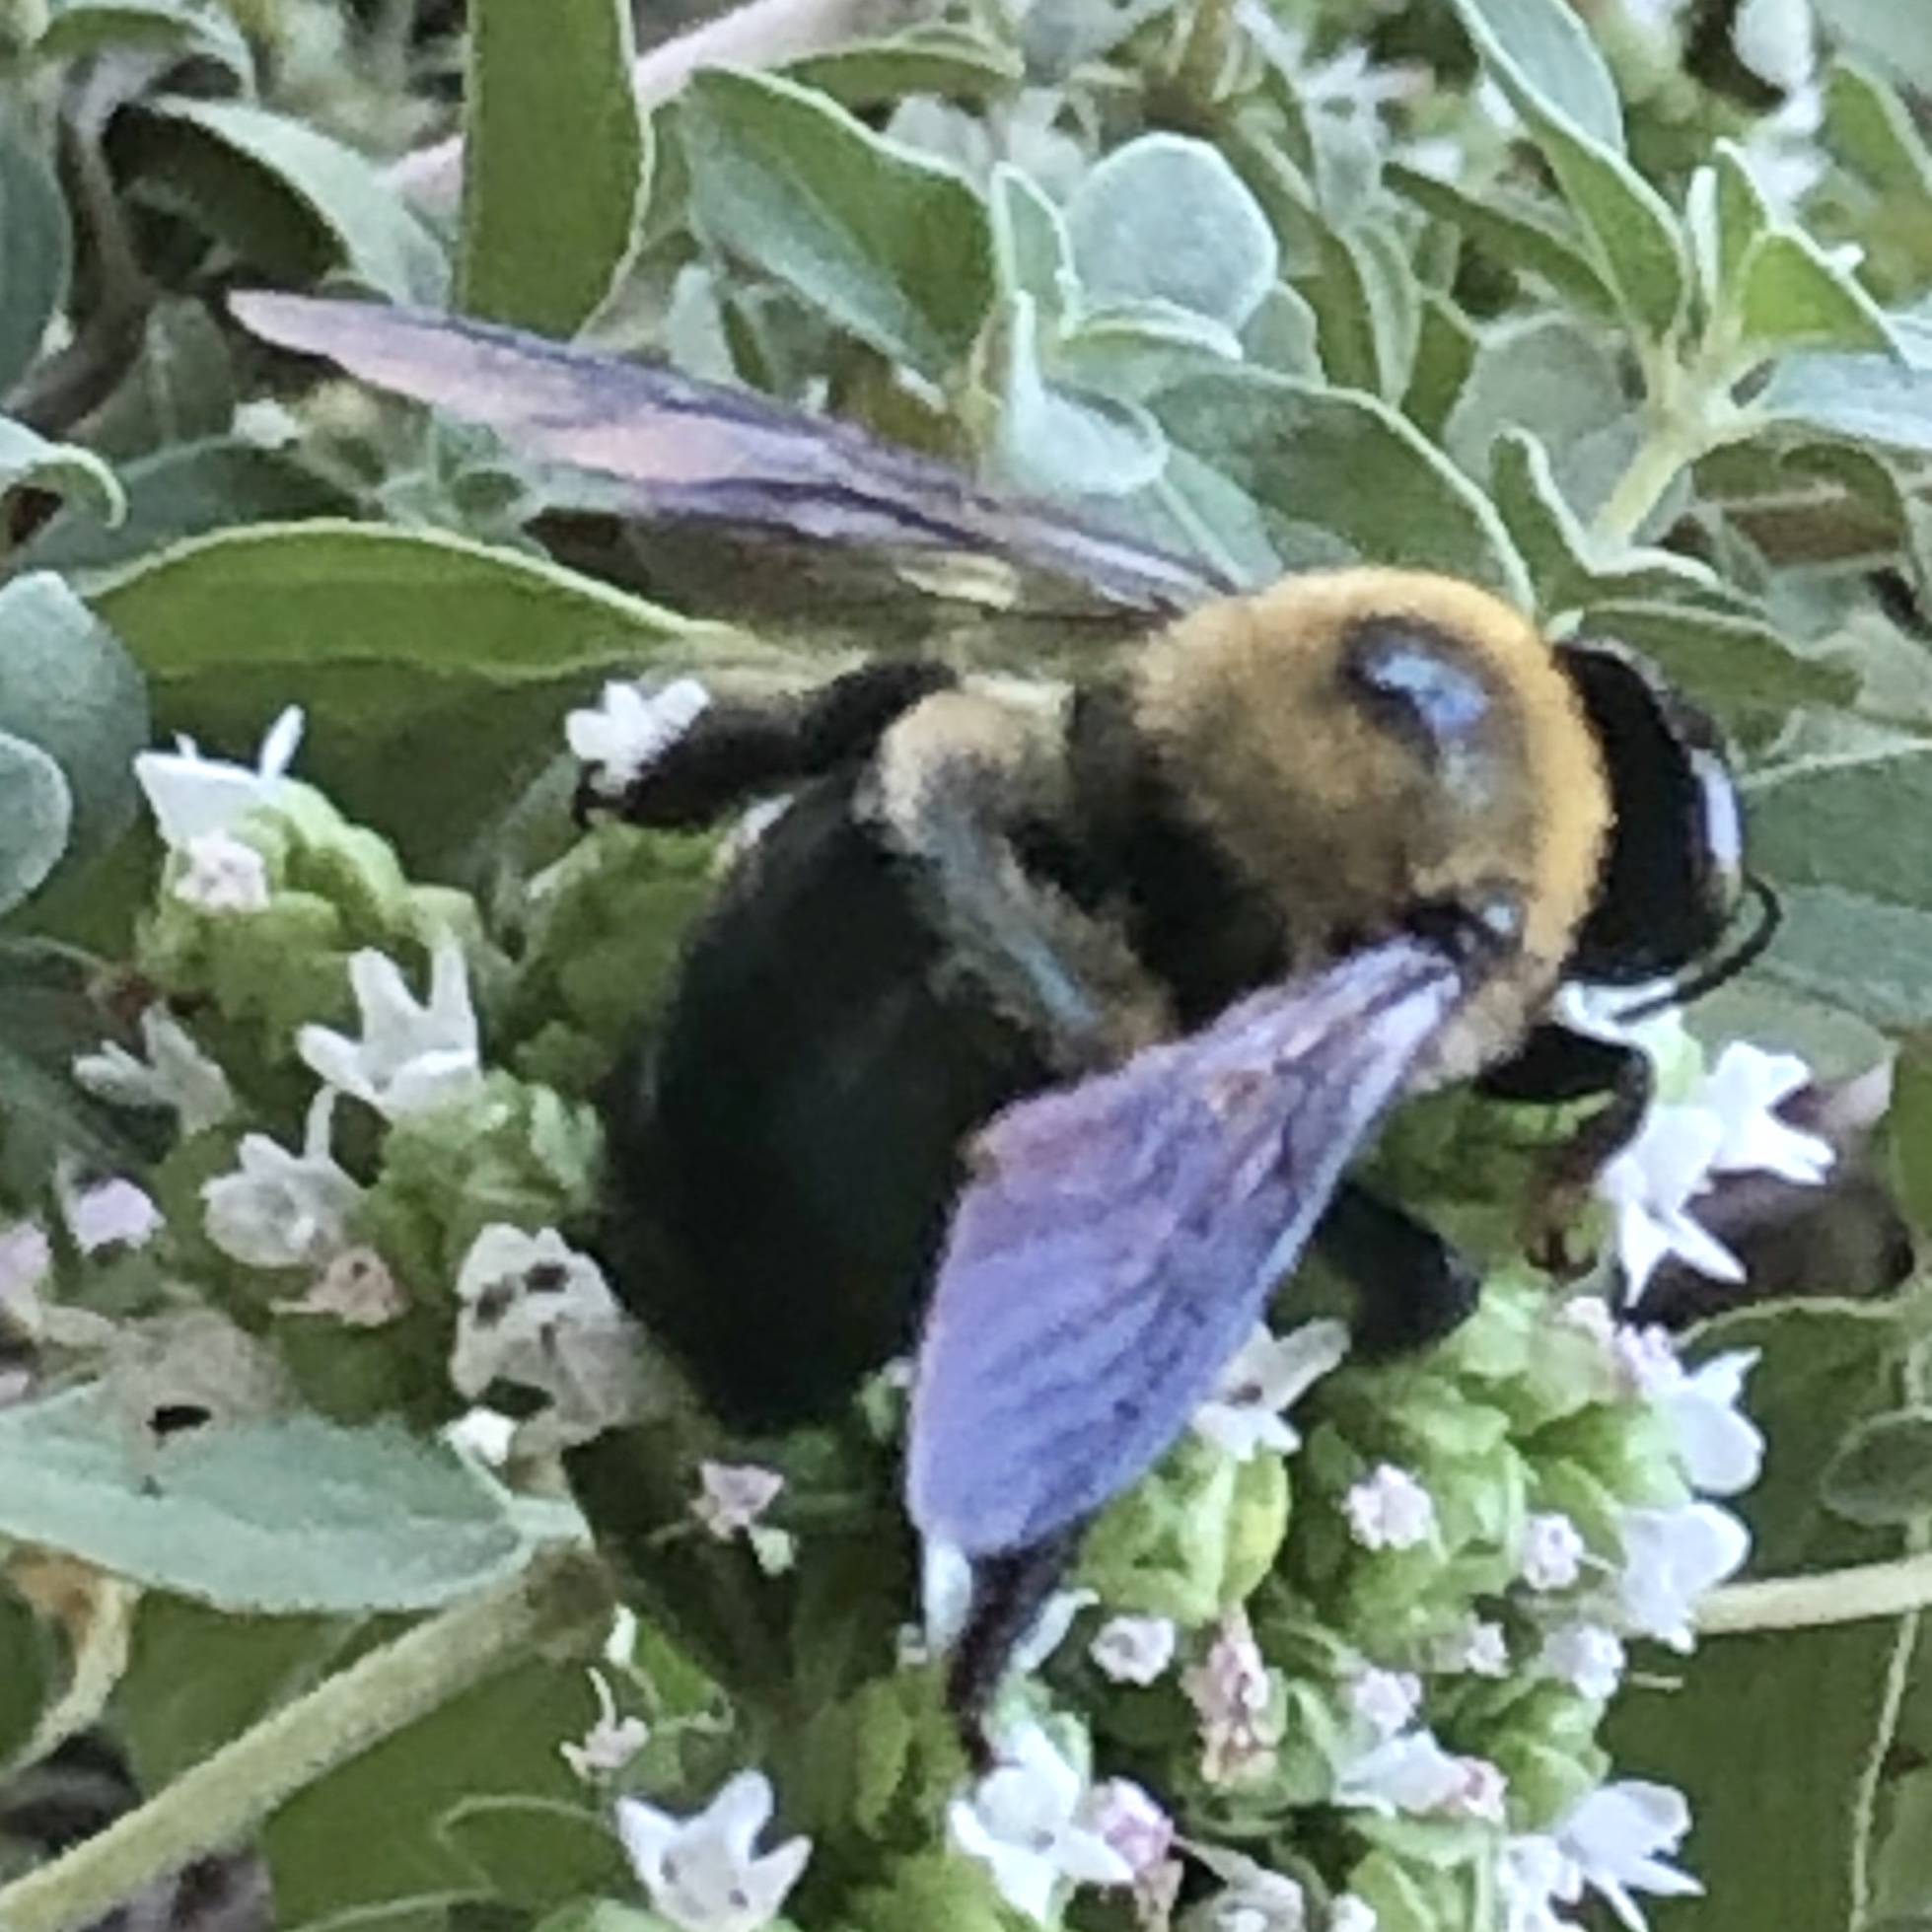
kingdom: Animalia
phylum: Arthropoda
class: Insecta
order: Hymenoptera
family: Apidae
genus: Xylocopa
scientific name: Xylocopa virginica
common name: Carpenter bee
